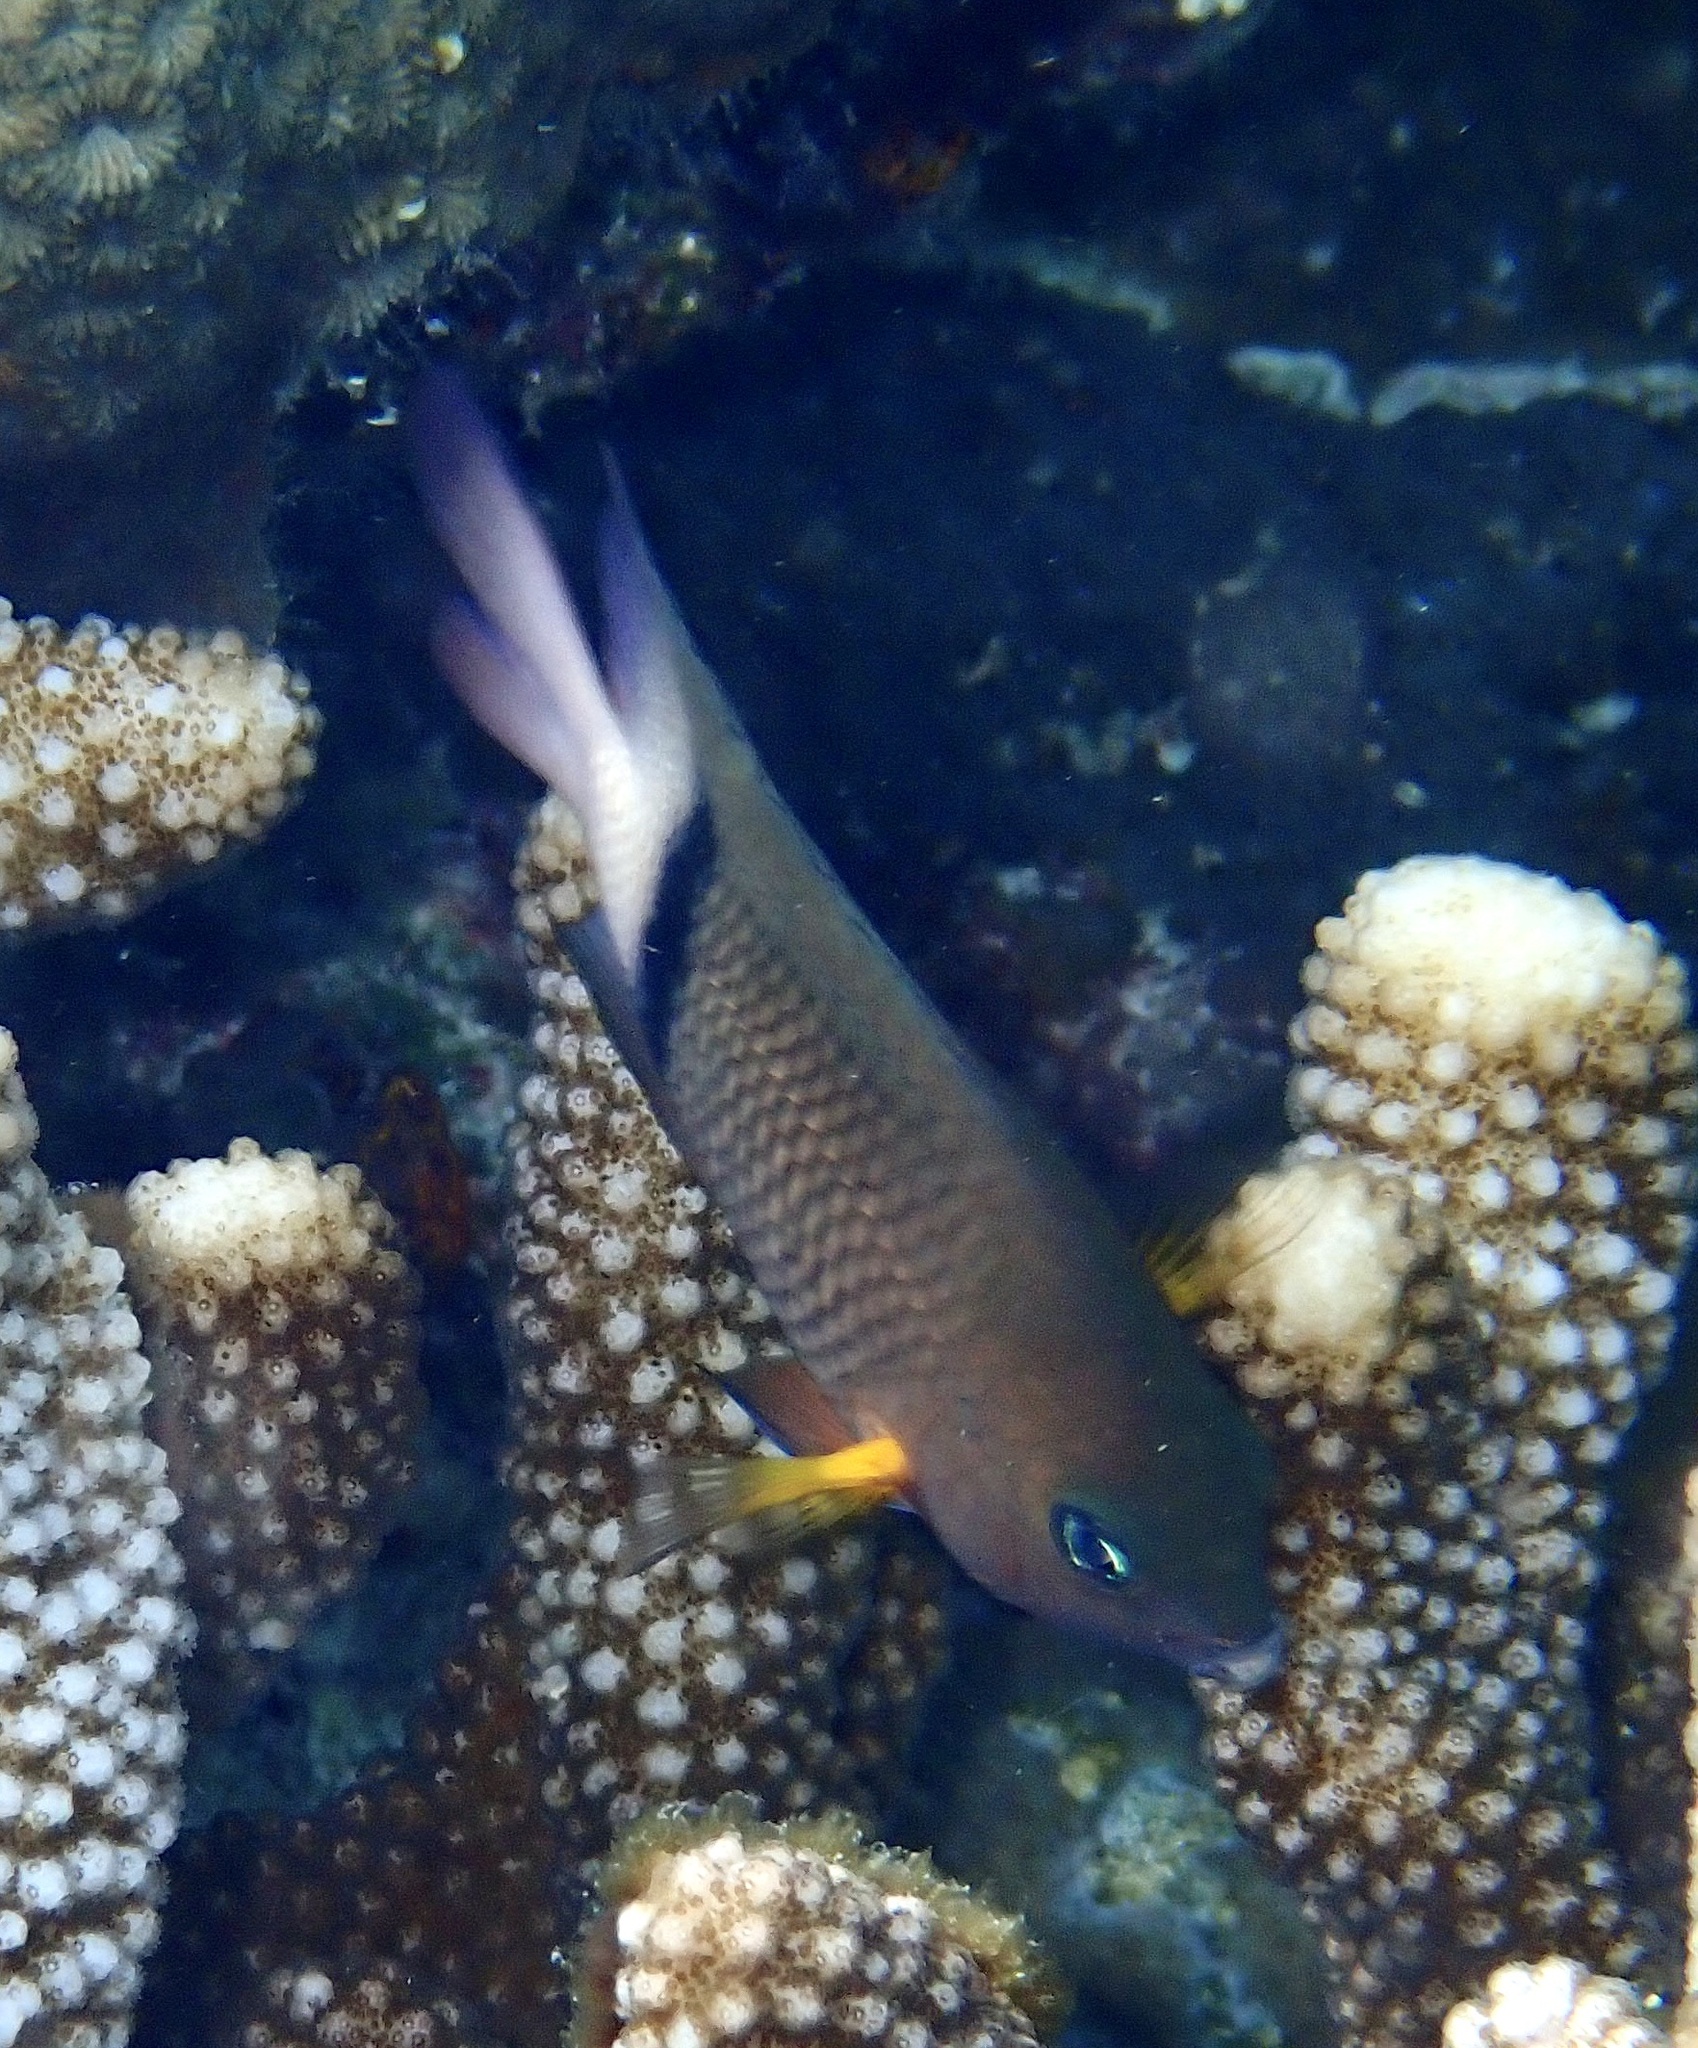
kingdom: Animalia
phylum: Chordata
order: Perciformes
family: Pomacentridae
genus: Plectroglyphidodon
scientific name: Plectroglyphidodon dickii
